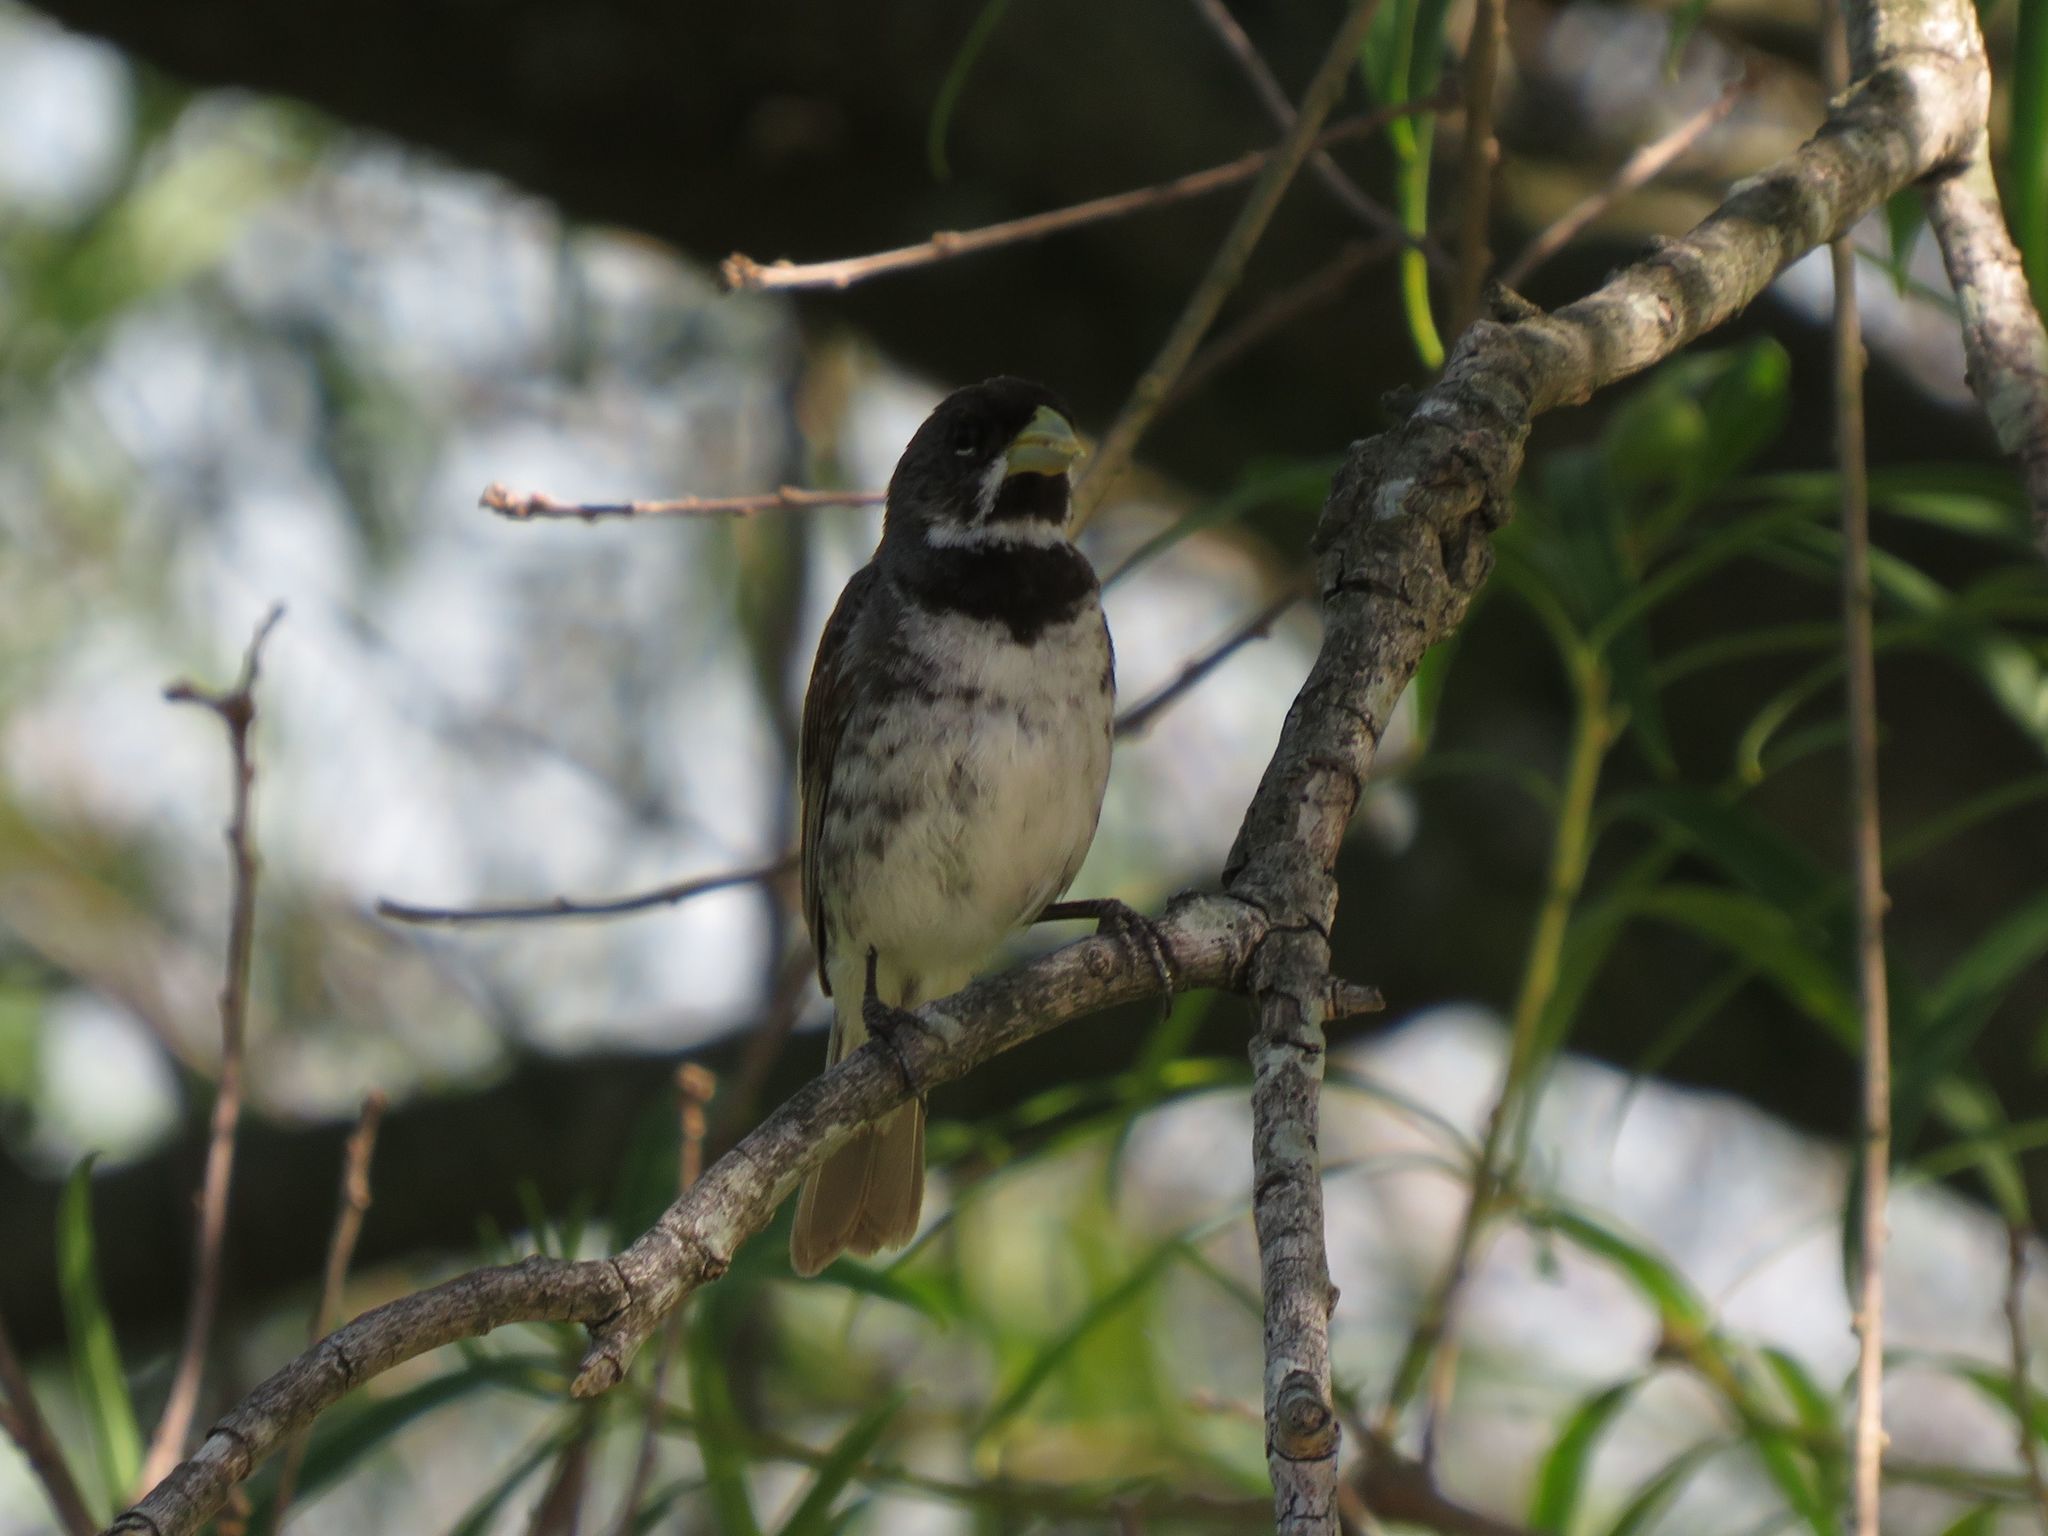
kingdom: Animalia
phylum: Chordata
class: Aves
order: Passeriformes
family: Thraupidae
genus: Sporophila
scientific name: Sporophila caerulescens
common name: Double-collared seedeater
